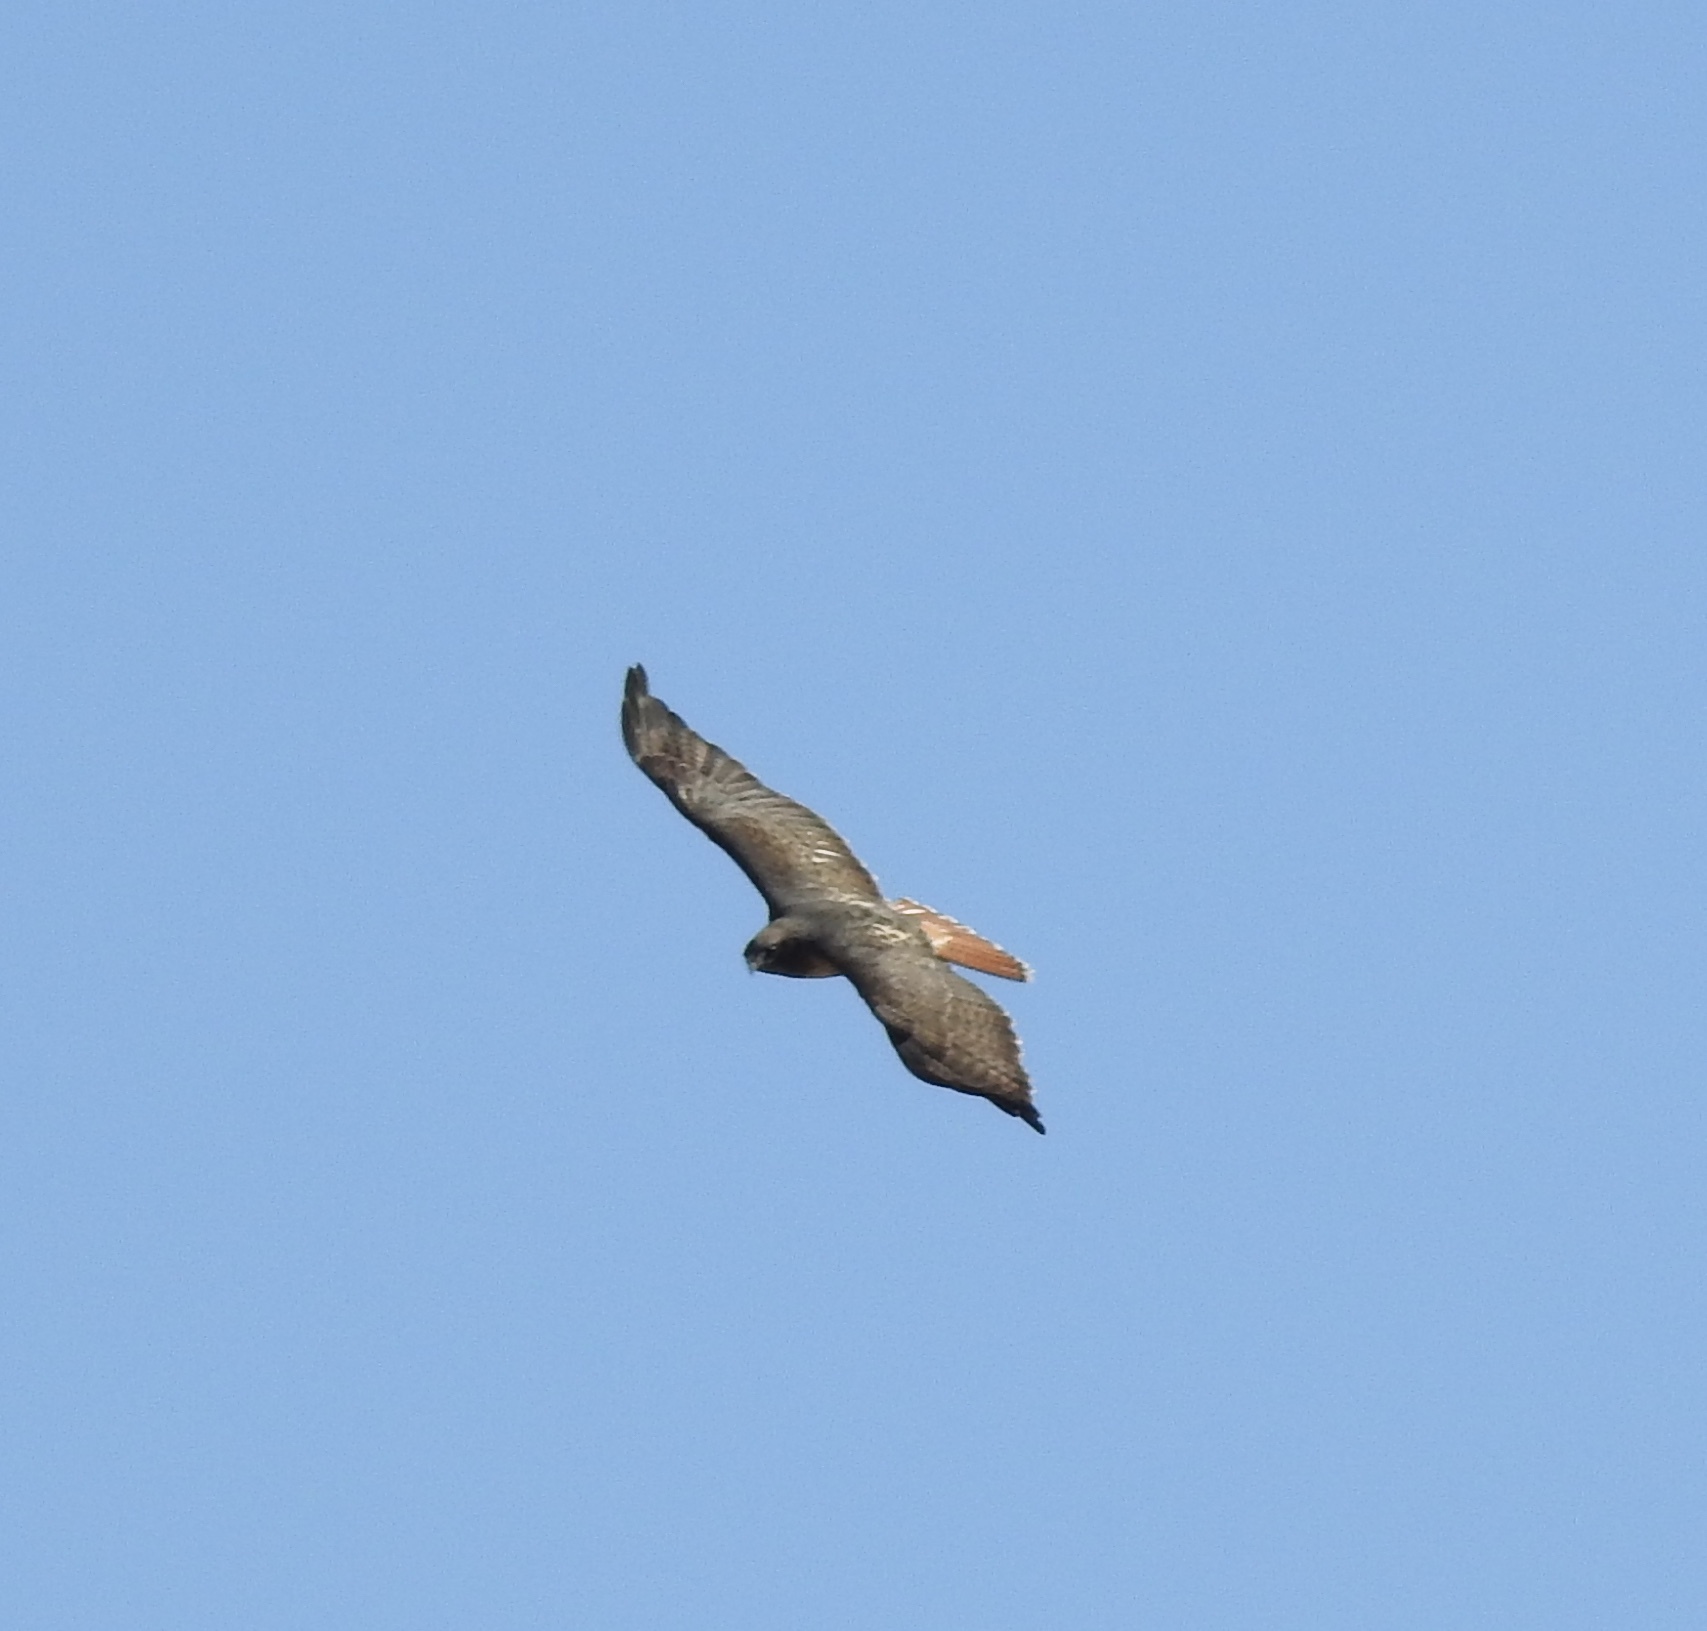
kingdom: Animalia
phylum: Chordata
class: Aves
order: Accipitriformes
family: Accipitridae
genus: Buteo
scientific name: Buteo jamaicensis
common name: Red-tailed hawk
